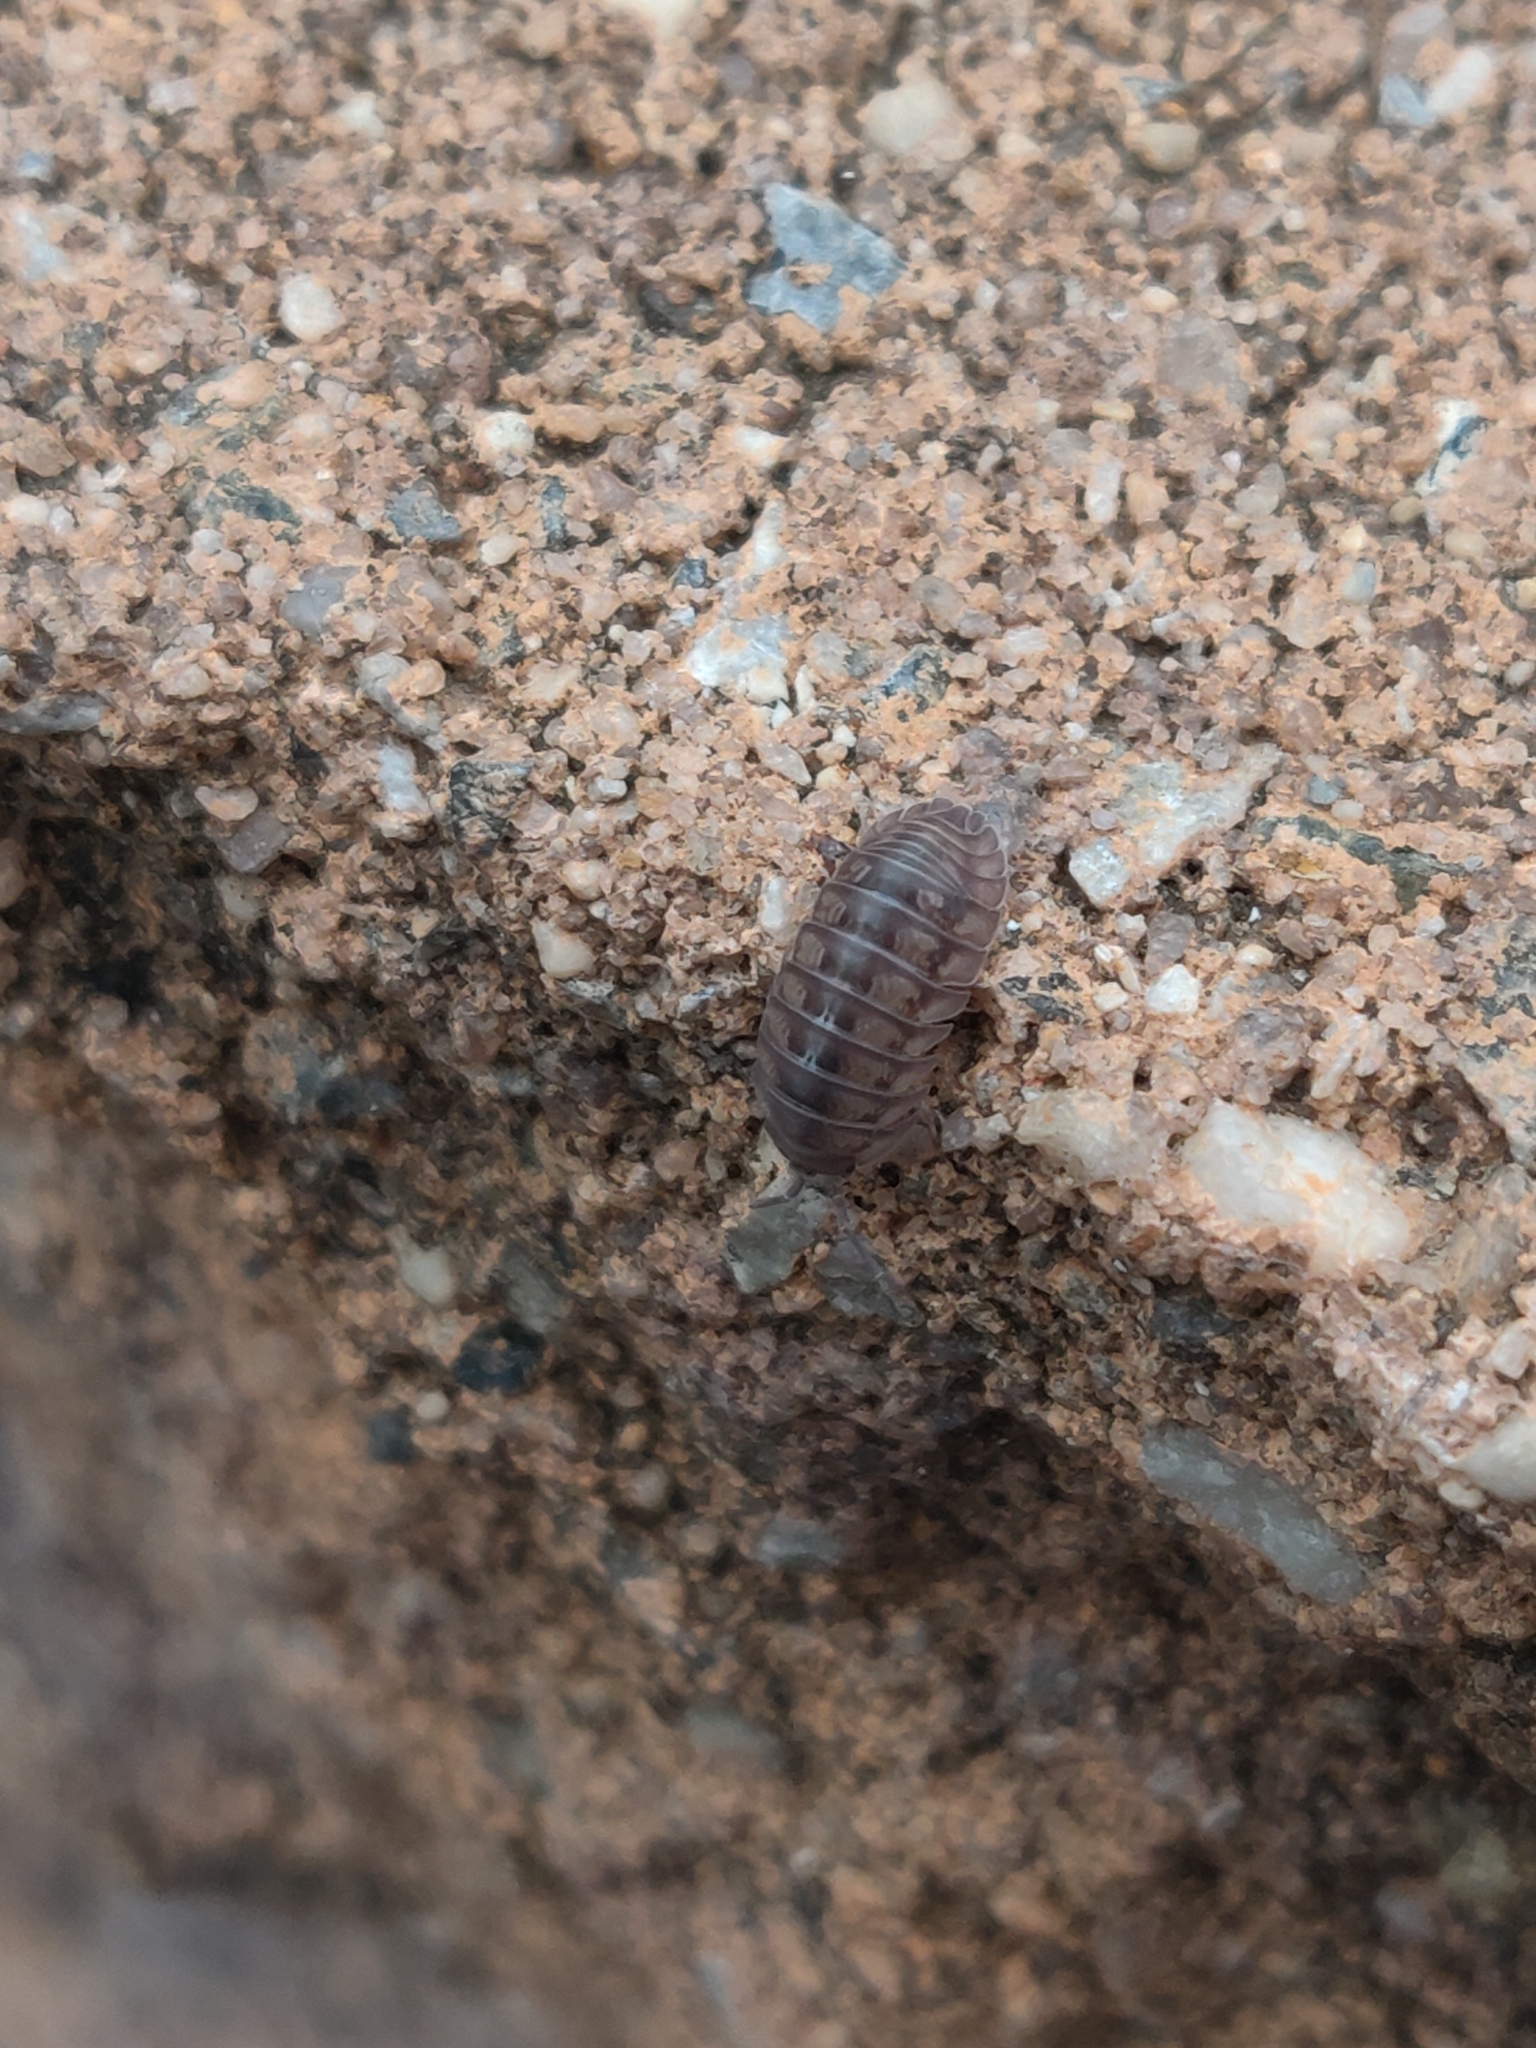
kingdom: Animalia
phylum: Arthropoda
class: Malacostraca
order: Isopoda
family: Armadillidiidae
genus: Armadillidium
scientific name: Armadillidium nasatum
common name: Isopod
